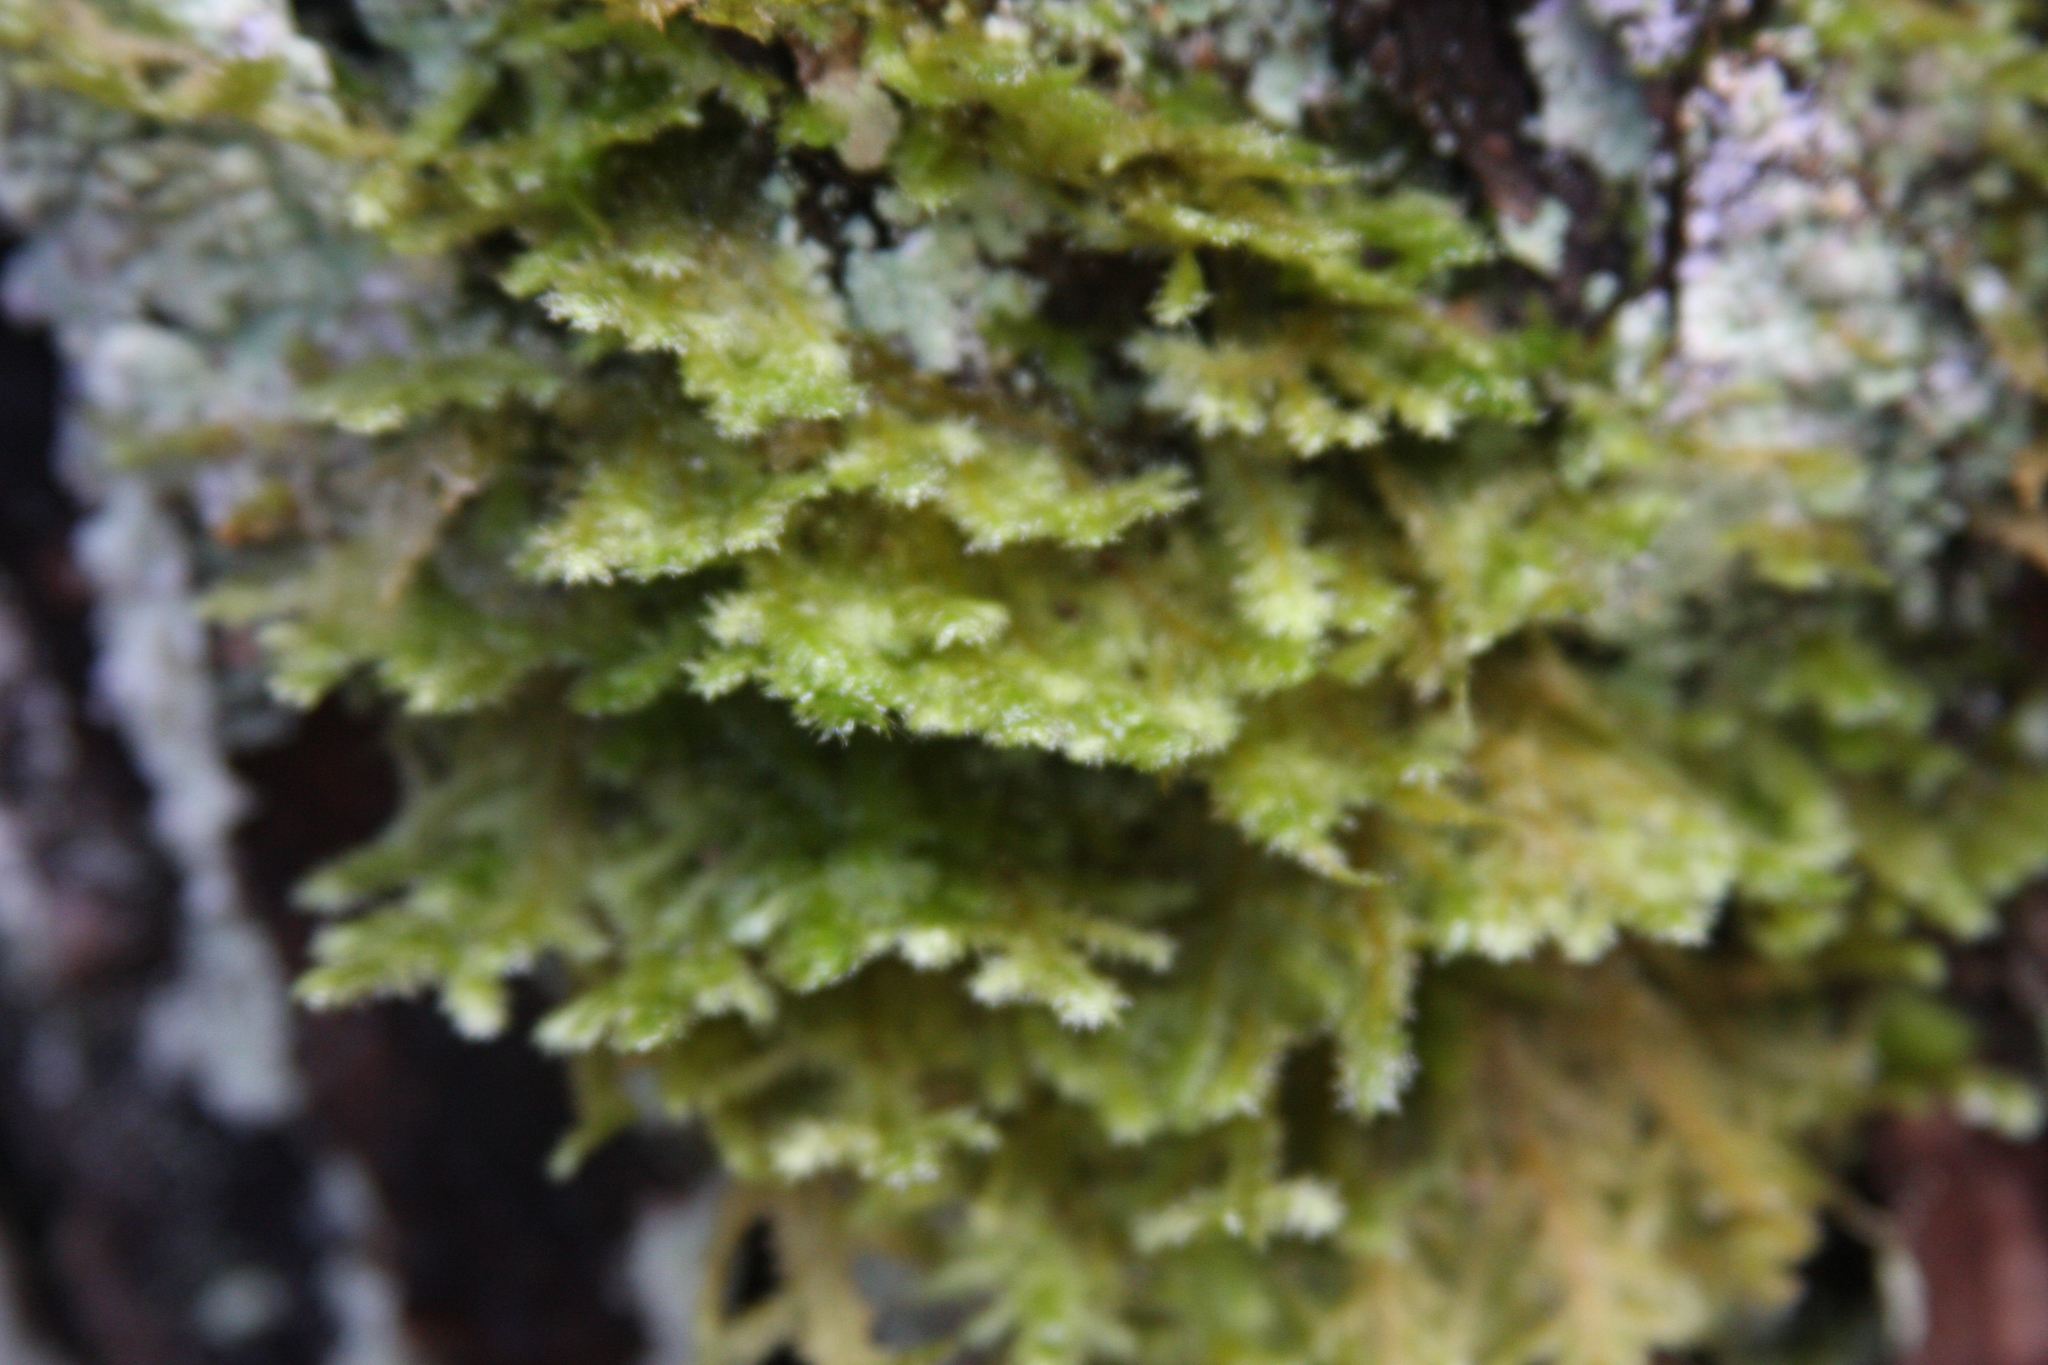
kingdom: Plantae
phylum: Bryophyta
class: Bryopsida
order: Hypnales
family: Neckeraceae
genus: Neckera
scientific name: Neckera pennata
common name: Feathery neckera
